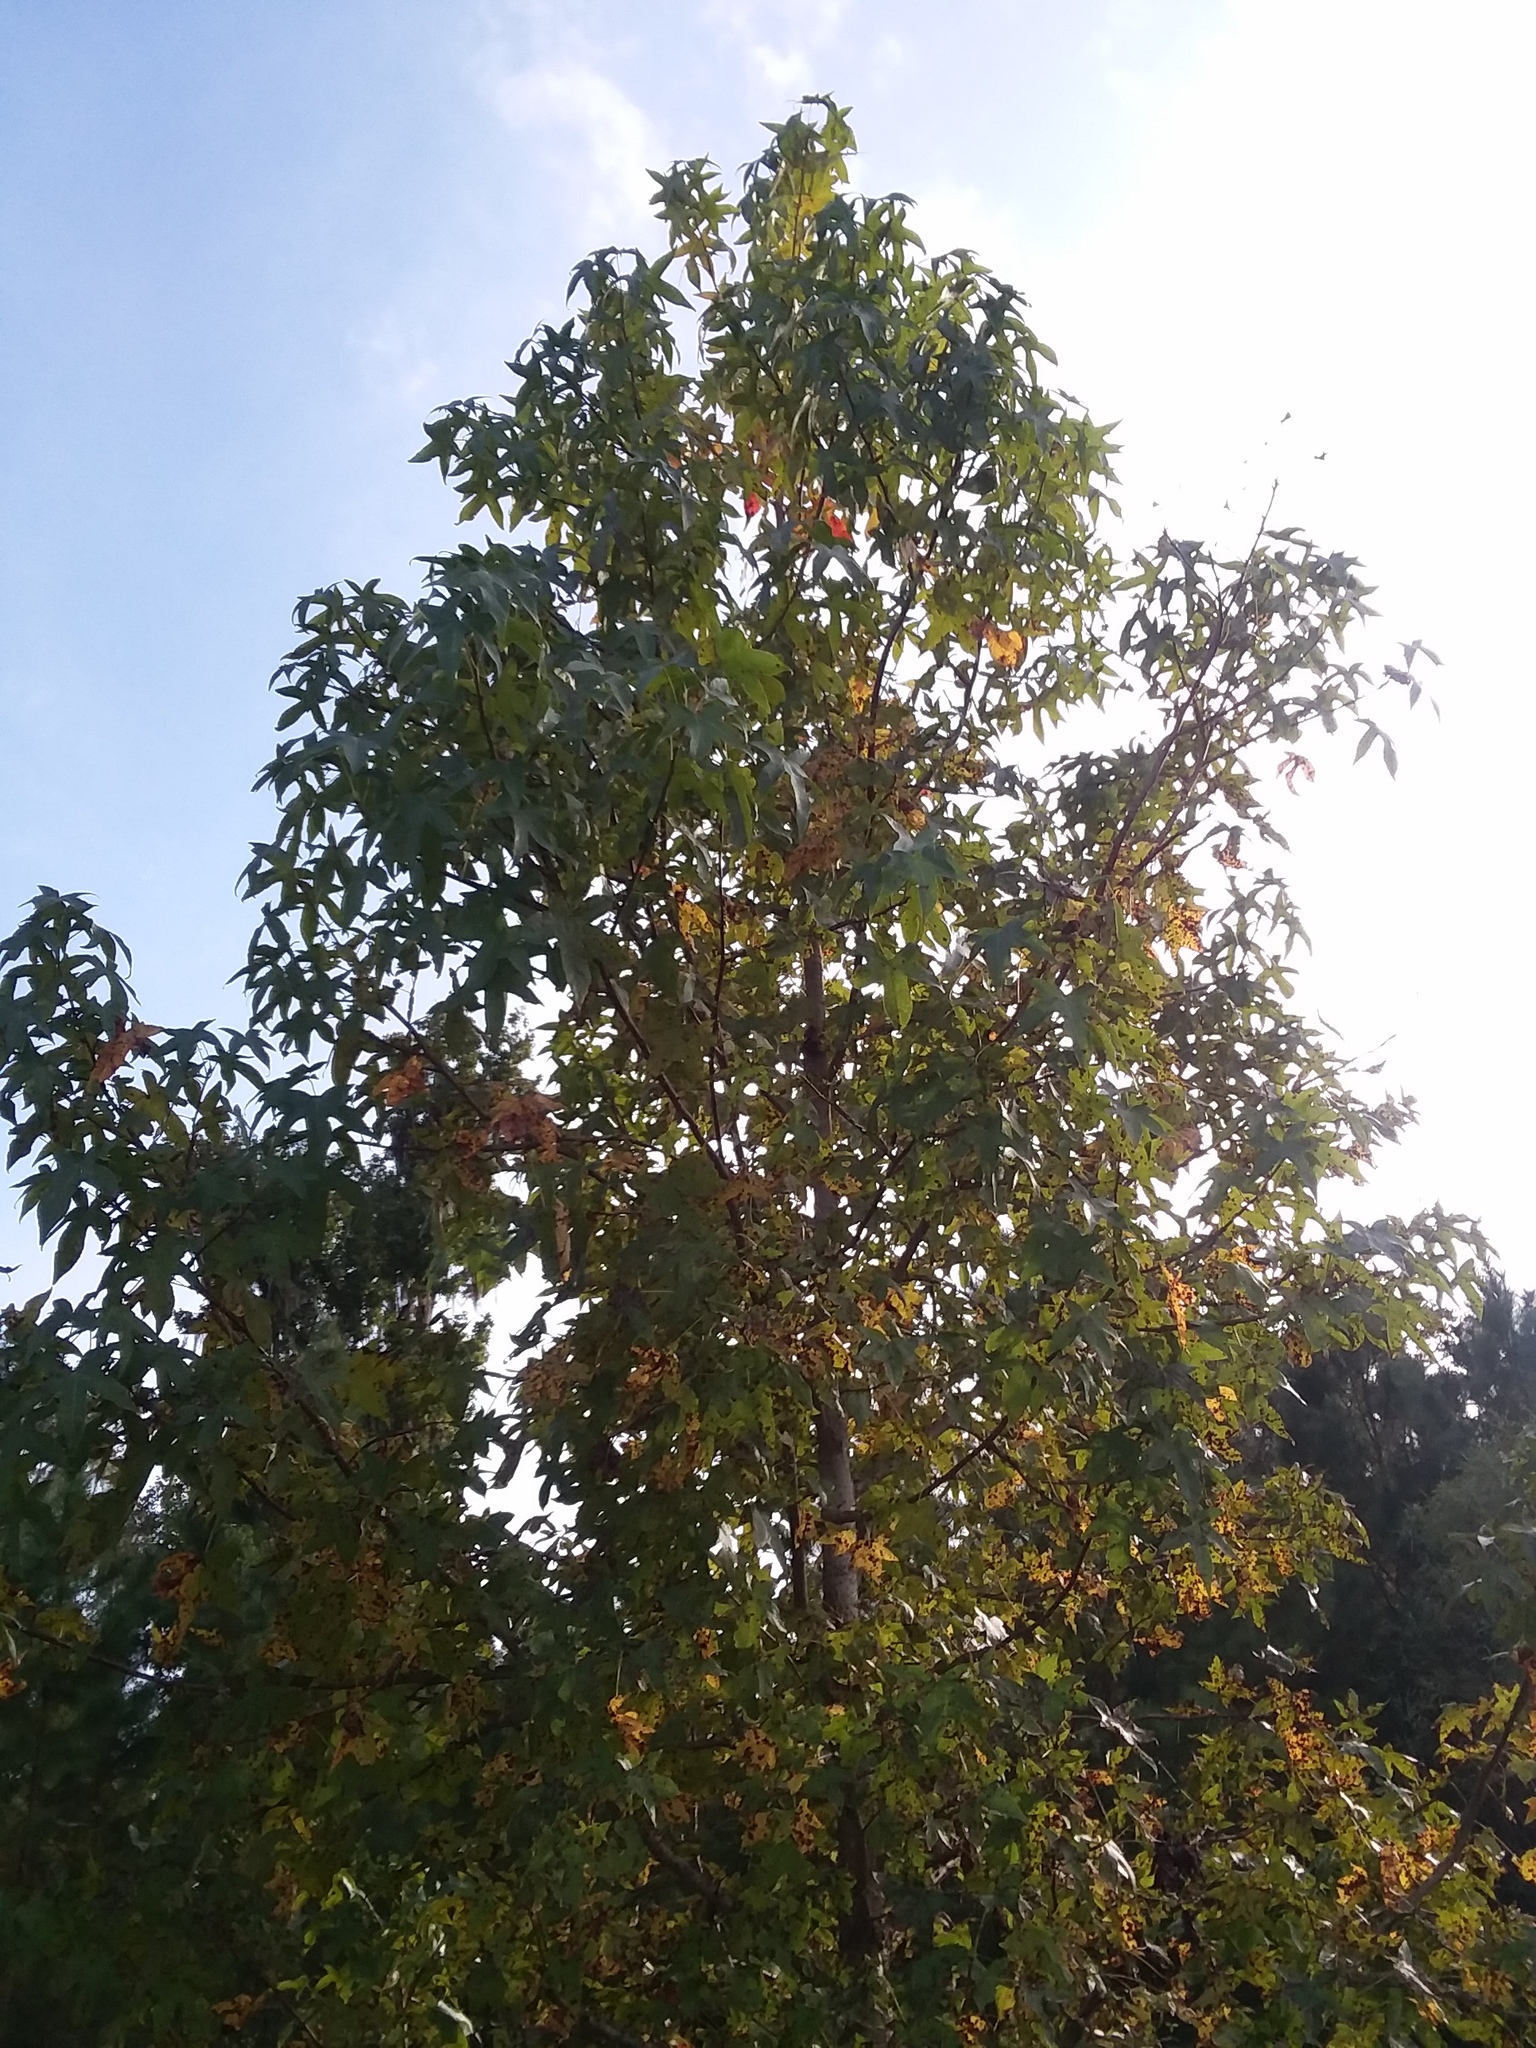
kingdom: Plantae
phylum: Tracheophyta
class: Magnoliopsida
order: Saxifragales
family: Altingiaceae
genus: Liquidambar
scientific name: Liquidambar styraciflua
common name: Sweet gum
